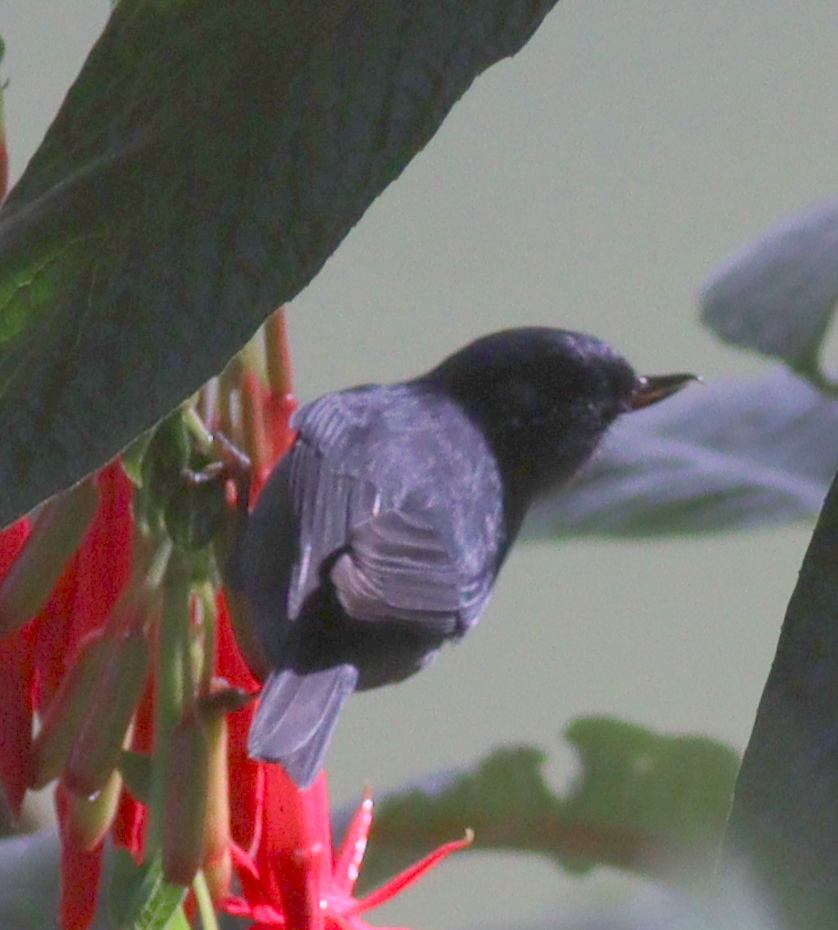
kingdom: Animalia
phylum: Chordata
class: Aves
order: Passeriformes
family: Thraupidae
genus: Diglossa
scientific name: Diglossa plumbea
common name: Slaty flowerpiercer
